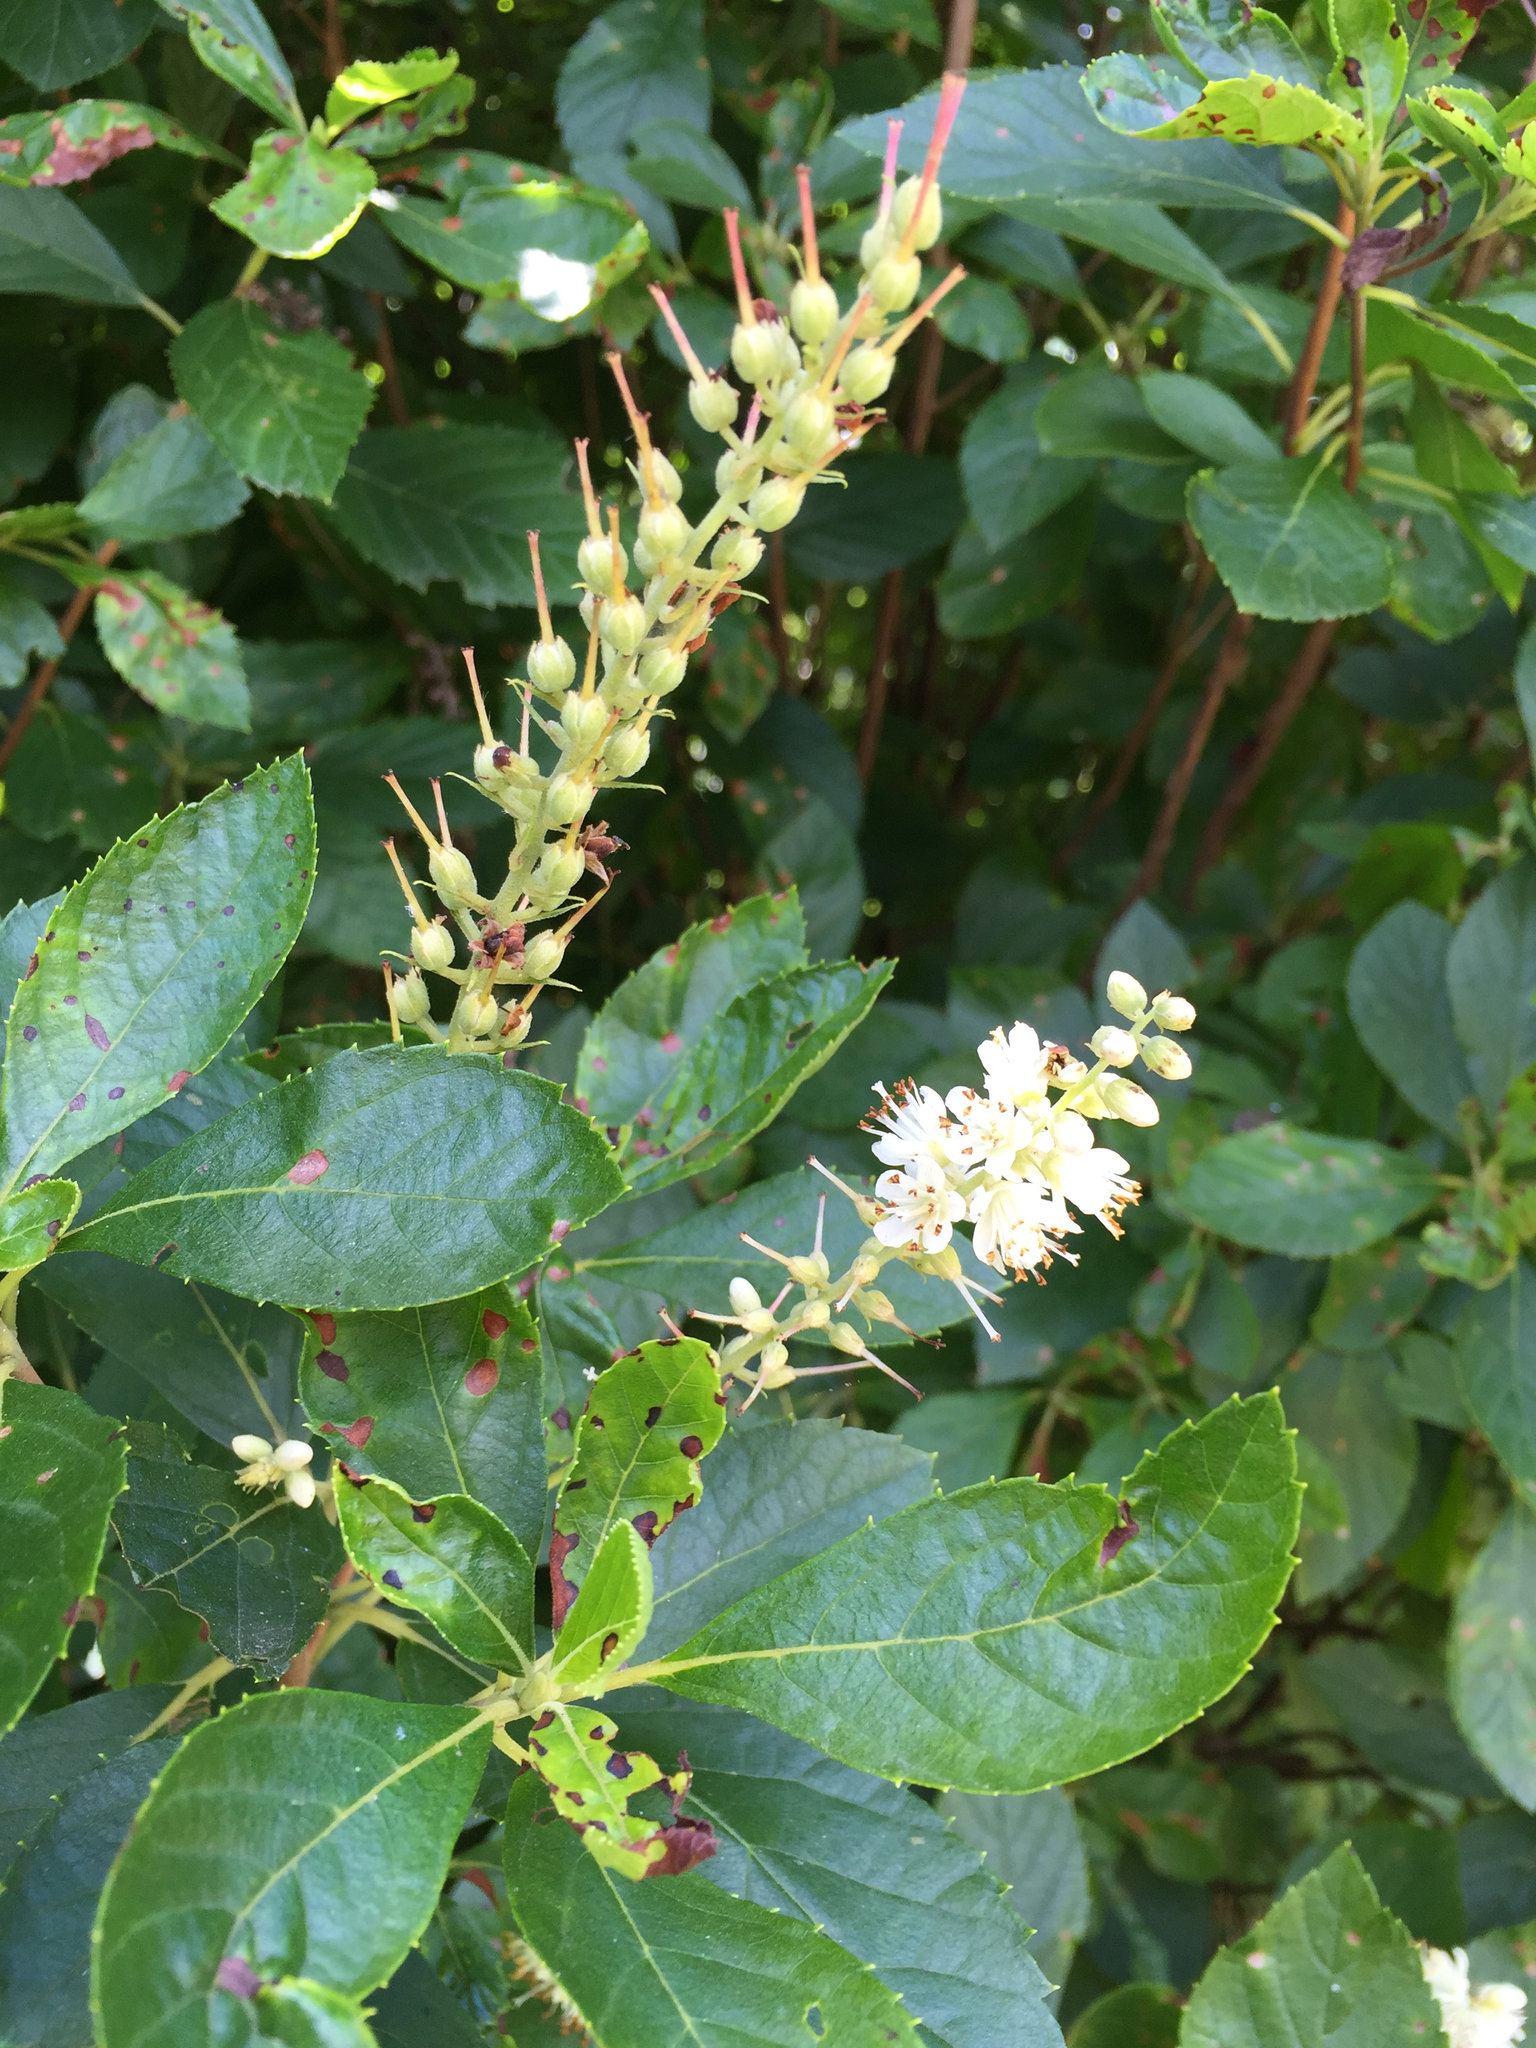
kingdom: Plantae
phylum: Tracheophyta
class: Magnoliopsida
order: Ericales
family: Clethraceae
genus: Clethra
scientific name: Clethra alnifolia
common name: Sweet pepperbush
